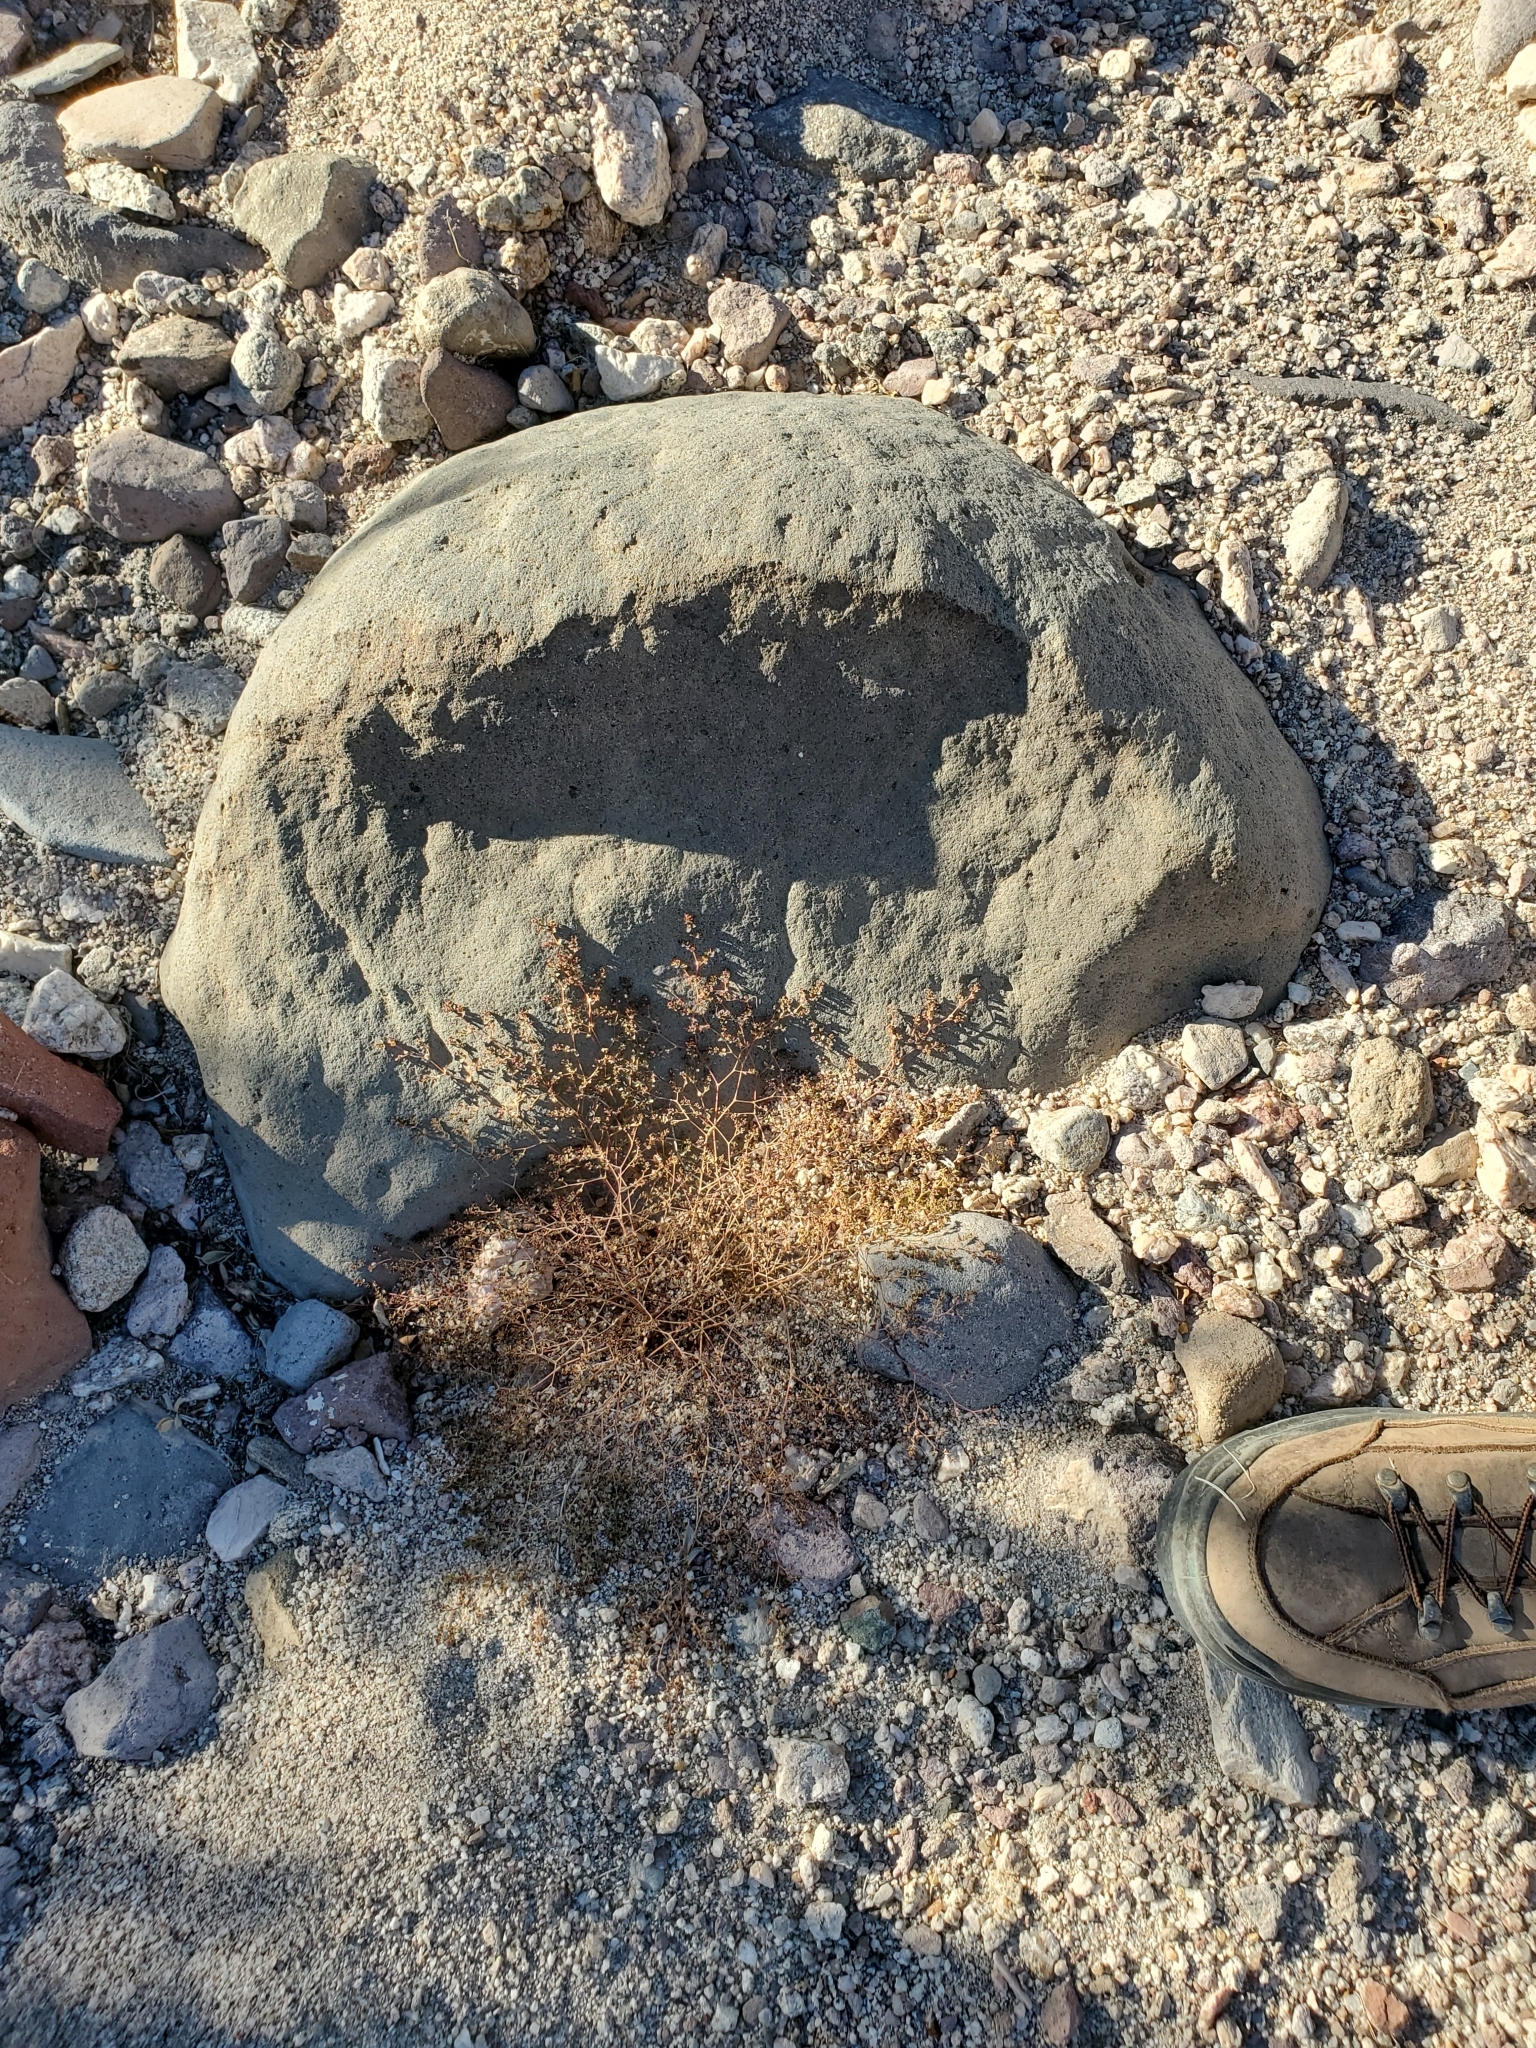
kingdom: Plantae
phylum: Tracheophyta
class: Magnoliopsida
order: Malpighiales
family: Euphorbiaceae
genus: Euphorbia
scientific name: Euphorbia polycarpa
